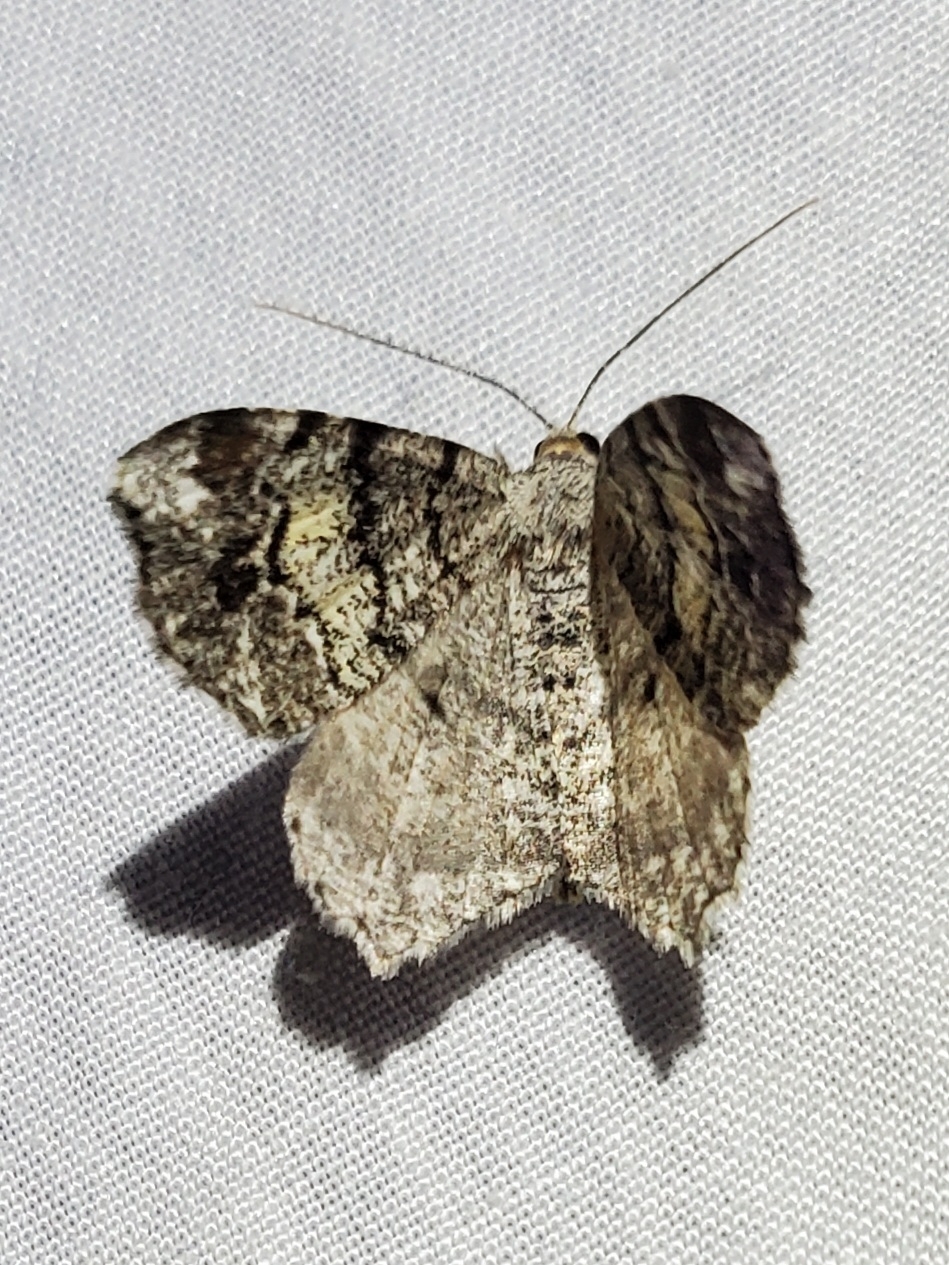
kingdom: Animalia
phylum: Arthropoda
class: Insecta
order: Lepidoptera
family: Geometridae
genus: Macaria
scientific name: Macaria granitata
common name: Granite moth
